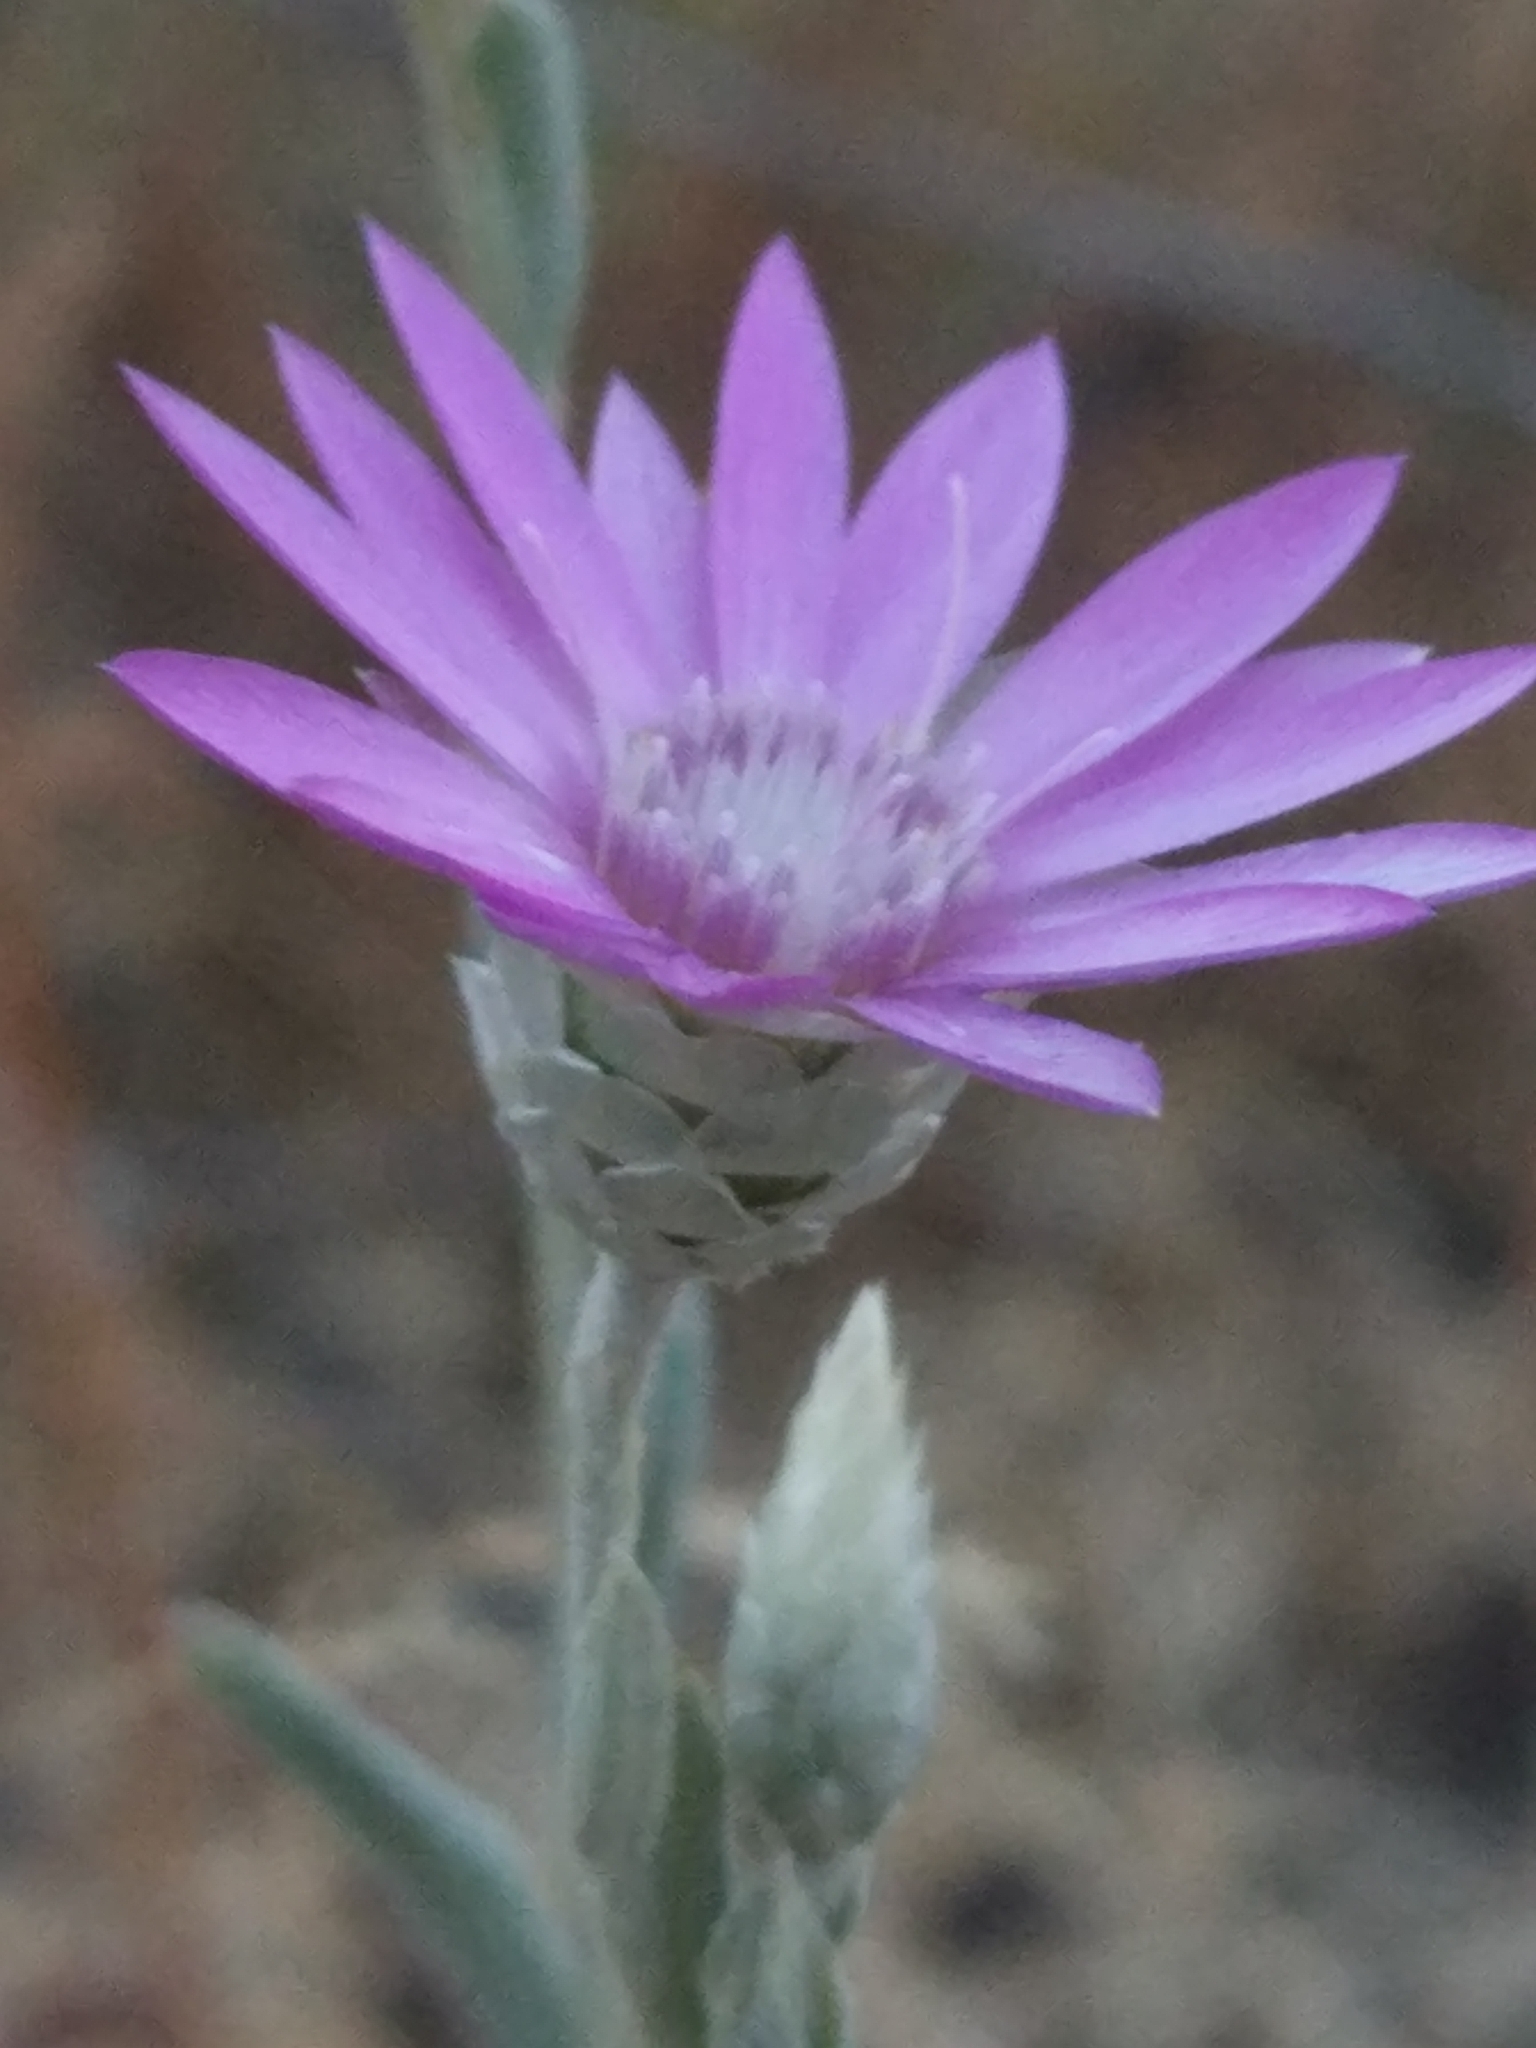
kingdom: Plantae
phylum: Tracheophyta
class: Magnoliopsida
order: Asterales
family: Asteraceae
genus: Xeranthemum
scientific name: Xeranthemum annuum
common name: Immortelle
